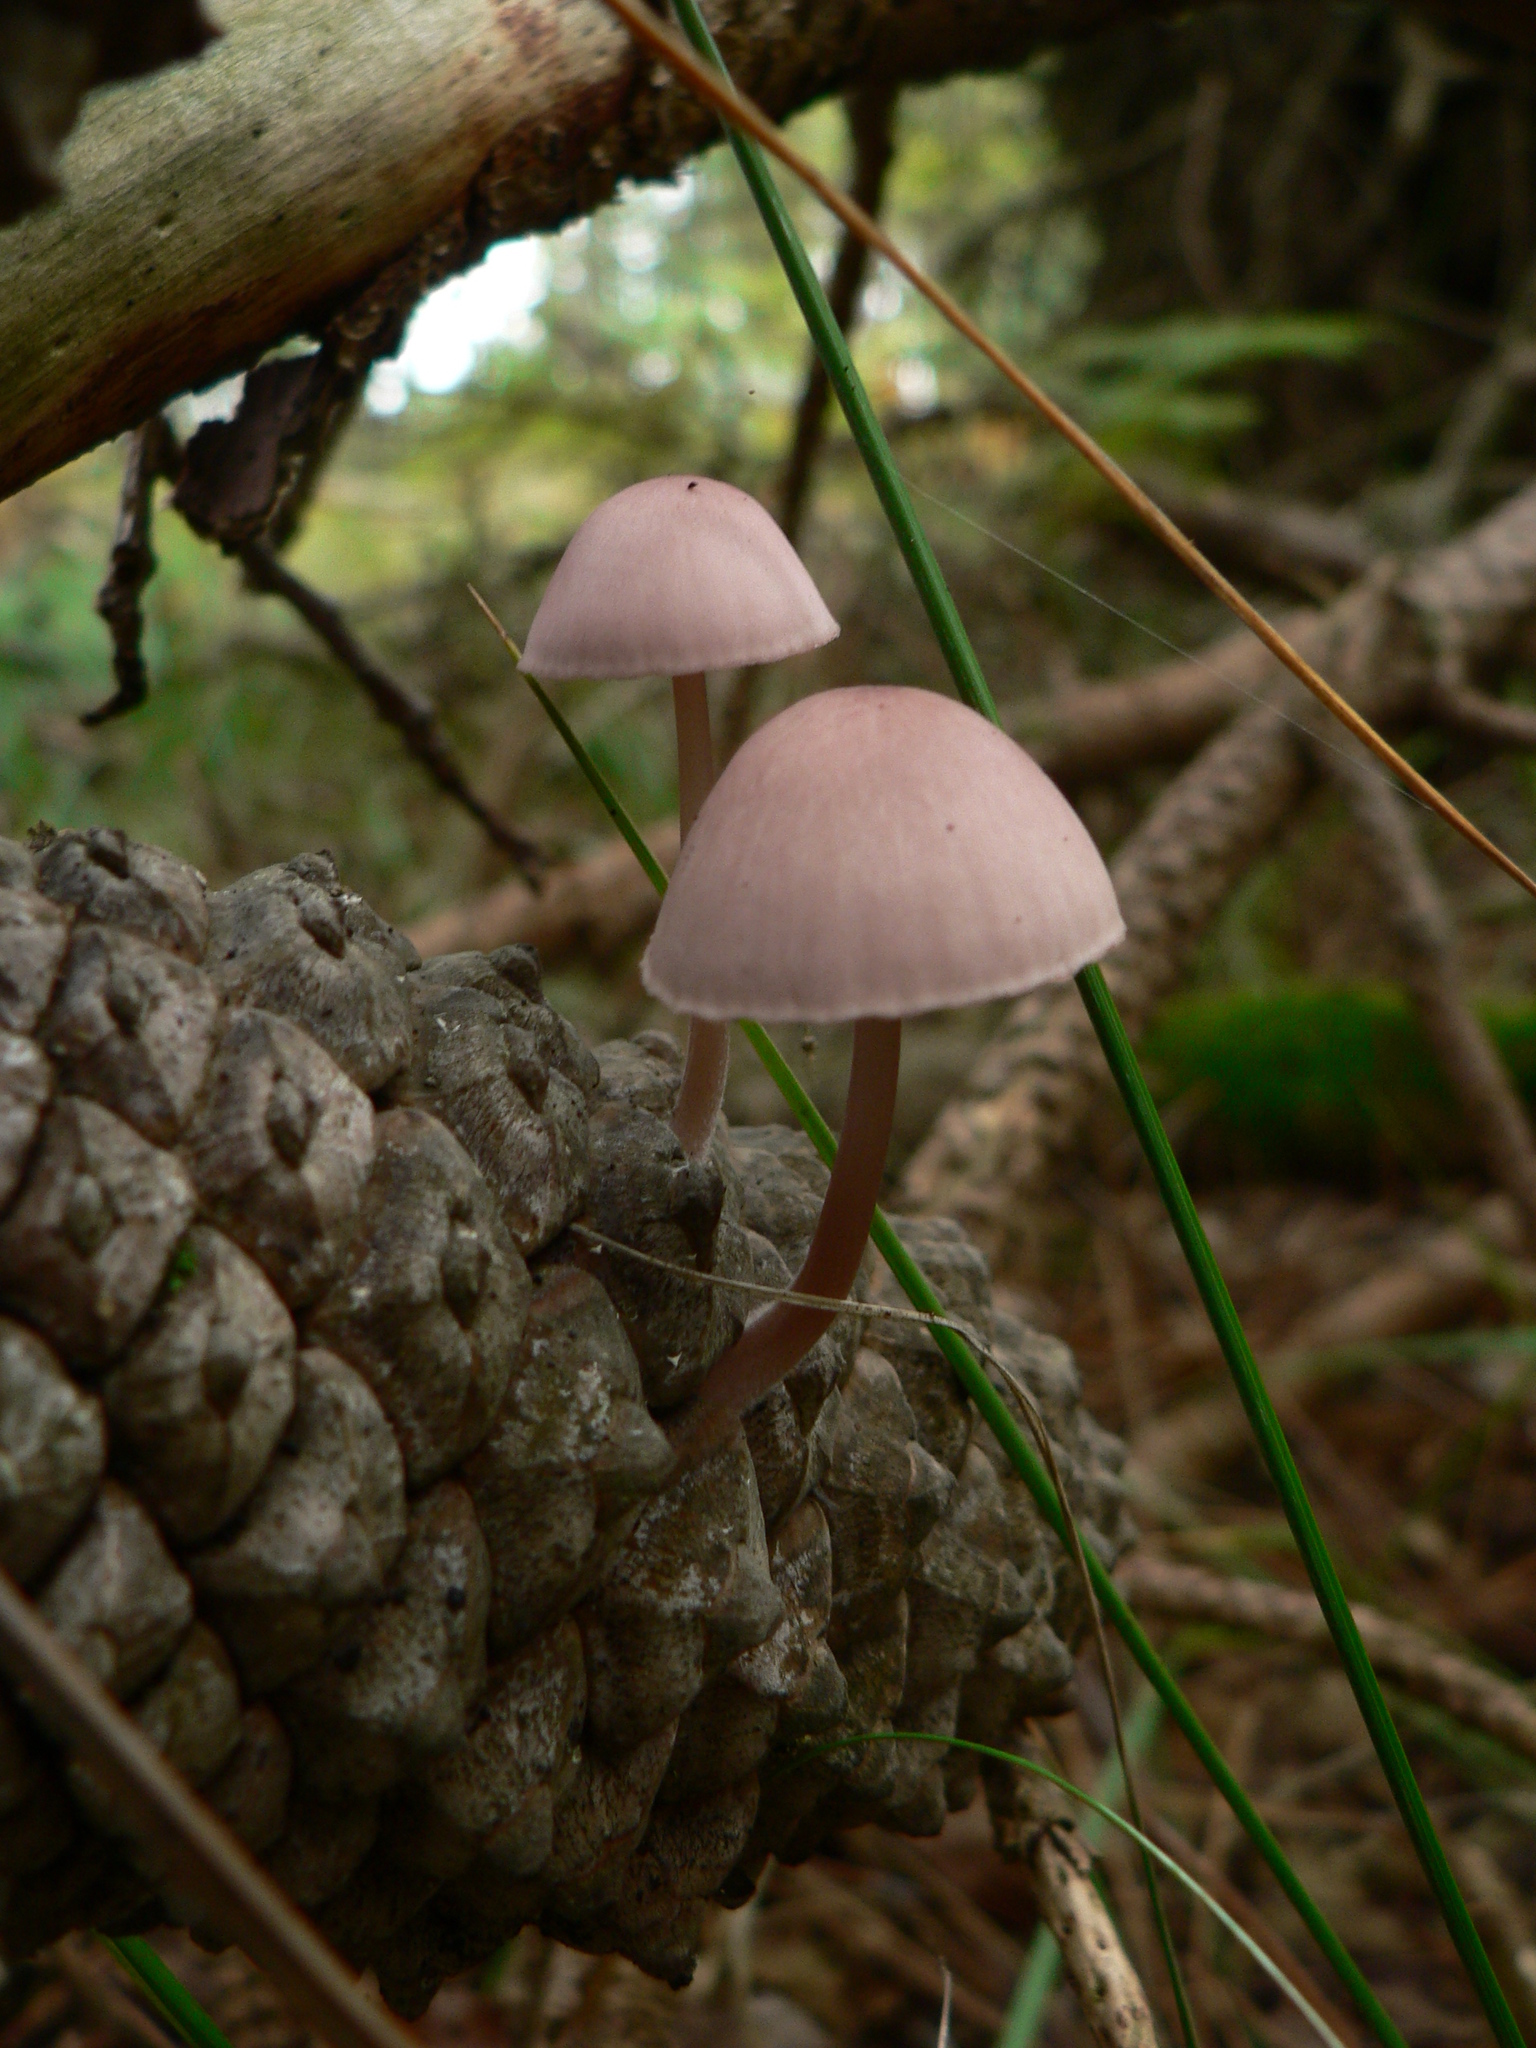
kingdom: Fungi
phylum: Basidiomycota
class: Agaricomycetes
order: Agaricales
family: Mycenaceae
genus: Mycena
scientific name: Mycena seynii
